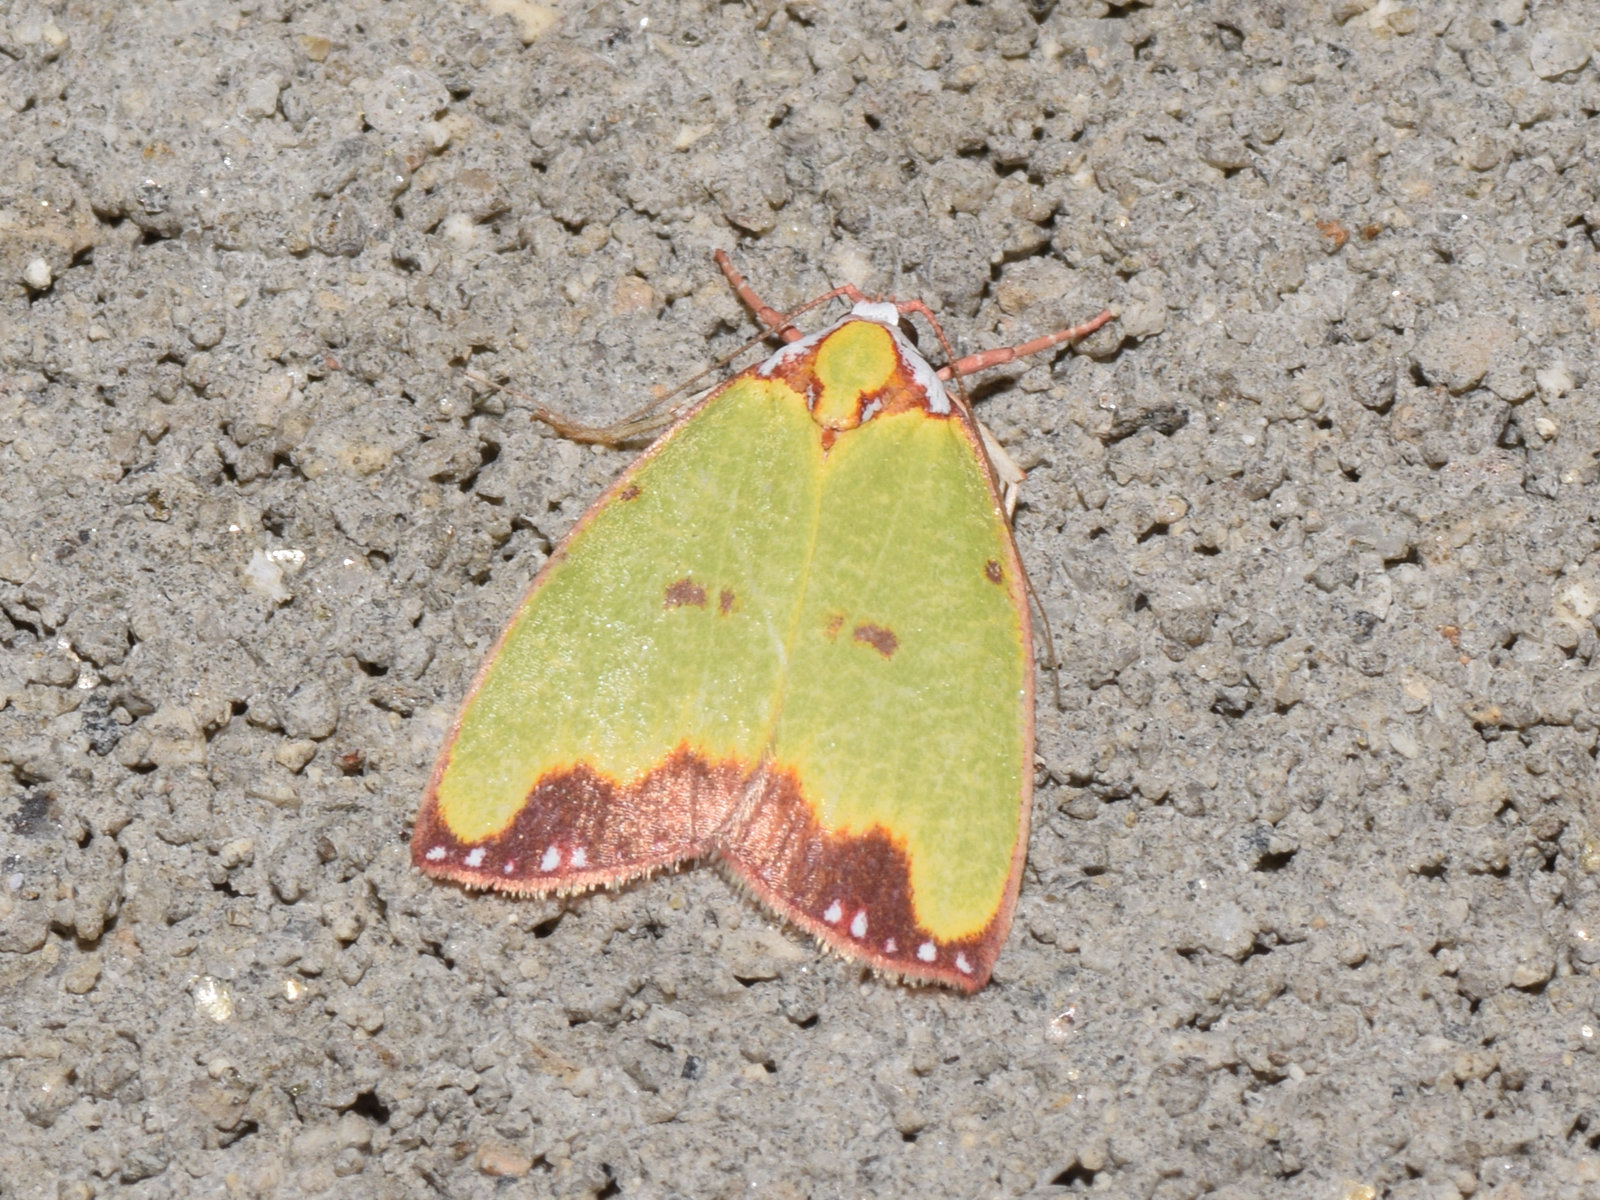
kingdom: Animalia
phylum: Arthropoda
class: Insecta
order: Lepidoptera
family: Nolidae
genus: Tyana
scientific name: Tyana callichlora
